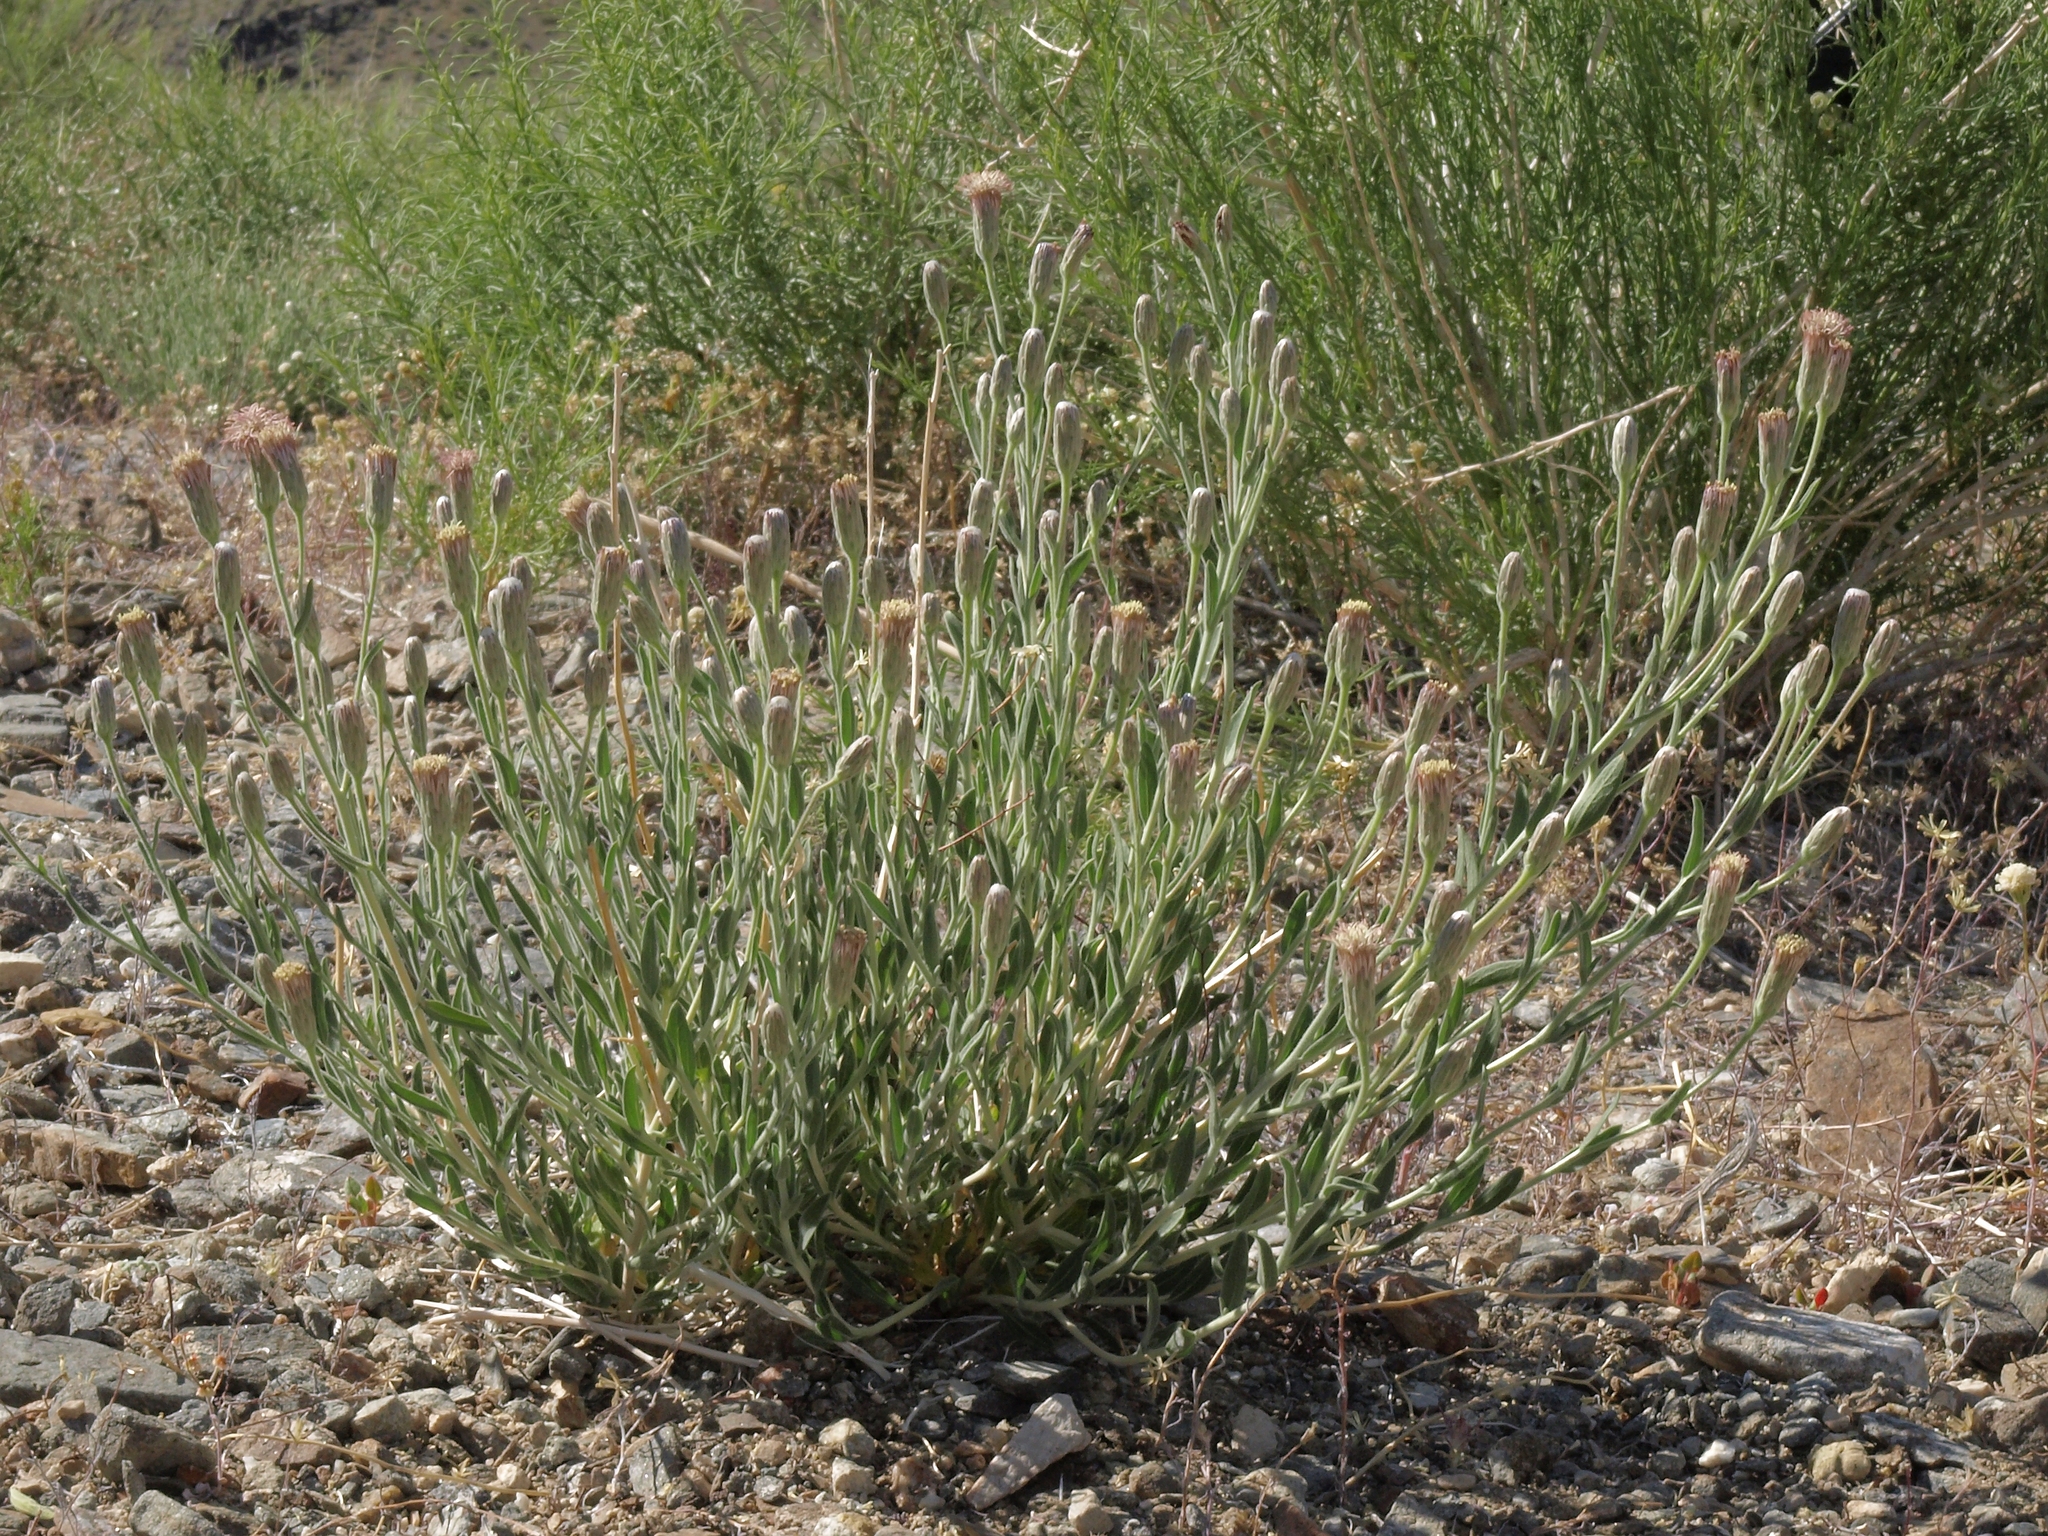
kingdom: Plantae
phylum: Tracheophyta
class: Magnoliopsida
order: Asterales
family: Asteraceae
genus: Brickellia
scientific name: Brickellia oblongifolia
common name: Mojave brickellbush
